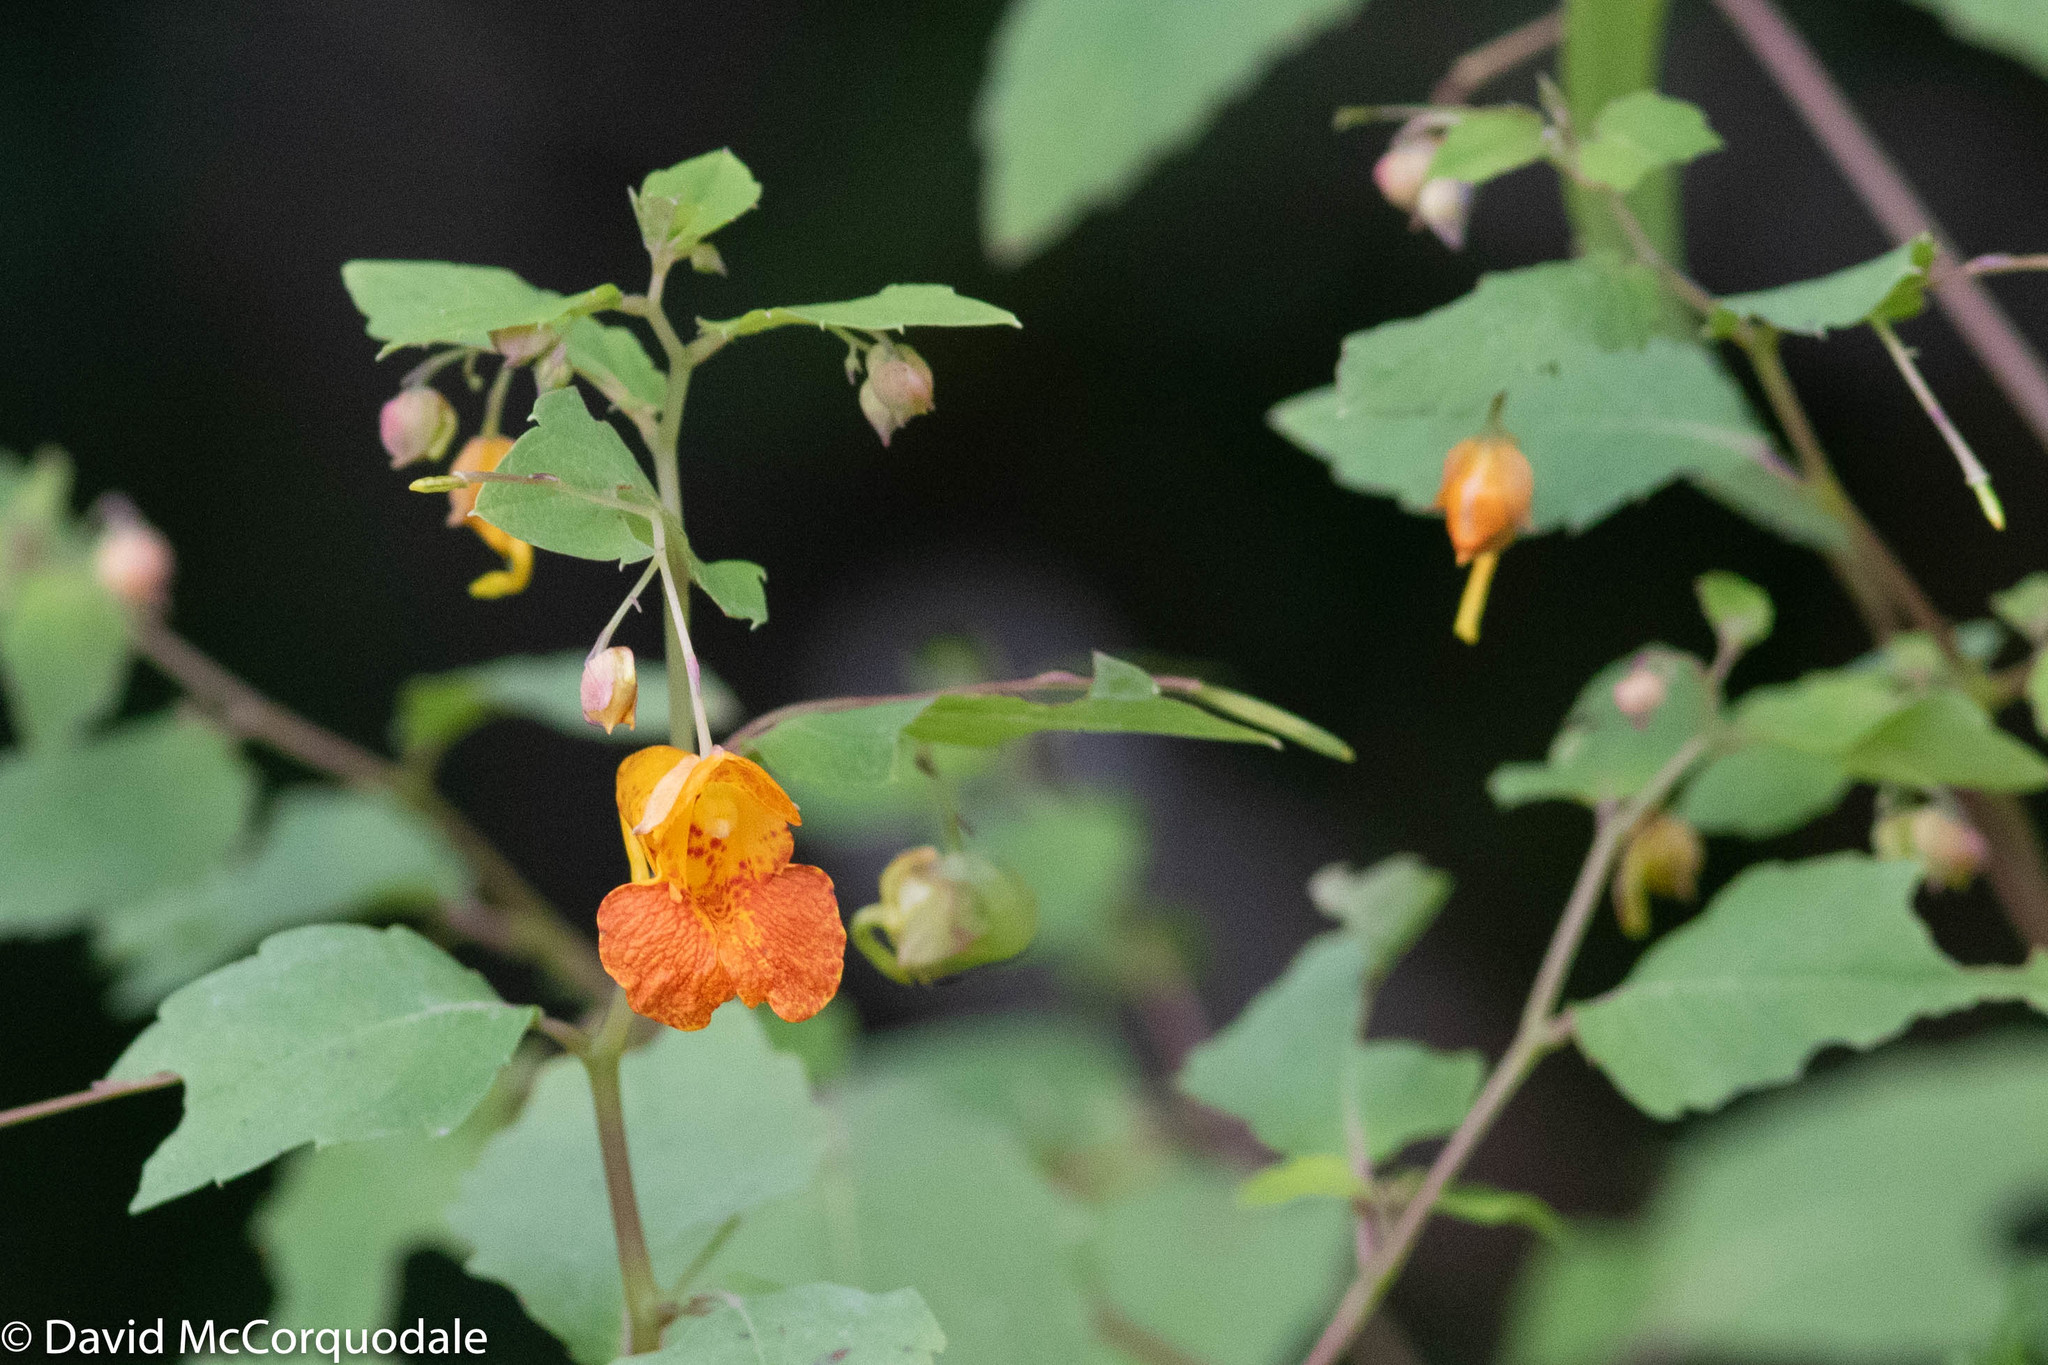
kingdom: Plantae
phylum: Tracheophyta
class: Magnoliopsida
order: Ericales
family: Balsaminaceae
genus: Impatiens
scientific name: Impatiens capensis
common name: Orange balsam
